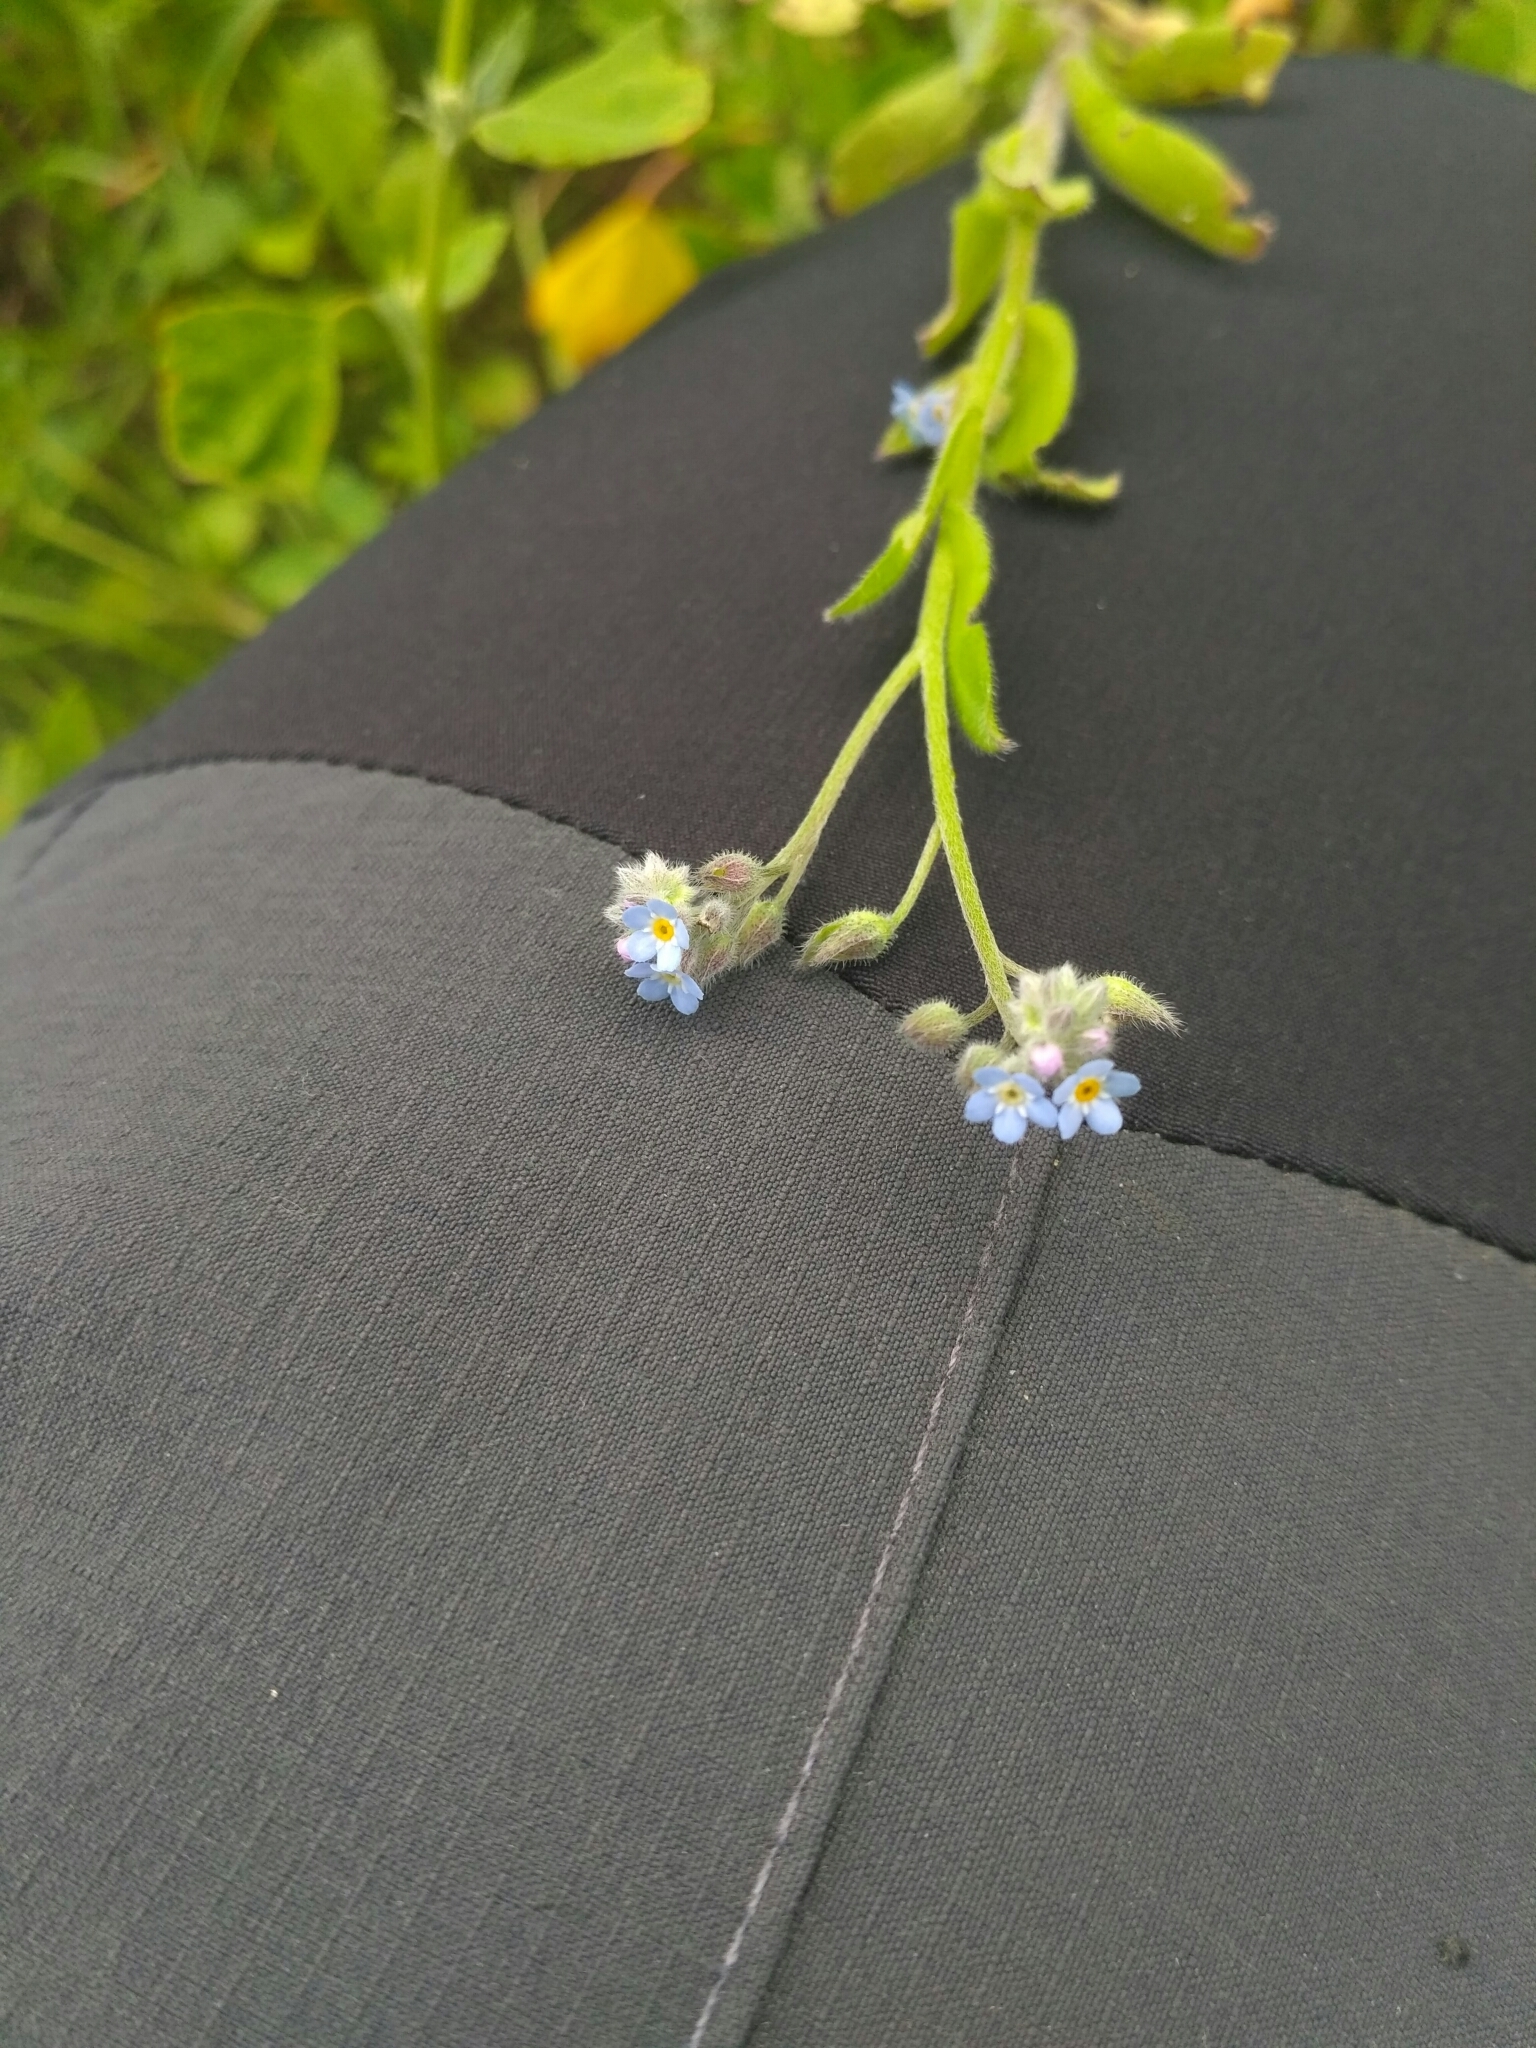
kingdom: Plantae
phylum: Tracheophyta
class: Magnoliopsida
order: Boraginales
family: Boraginaceae
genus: Myosotis
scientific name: Myosotis arvensis
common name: Field forget-me-not
